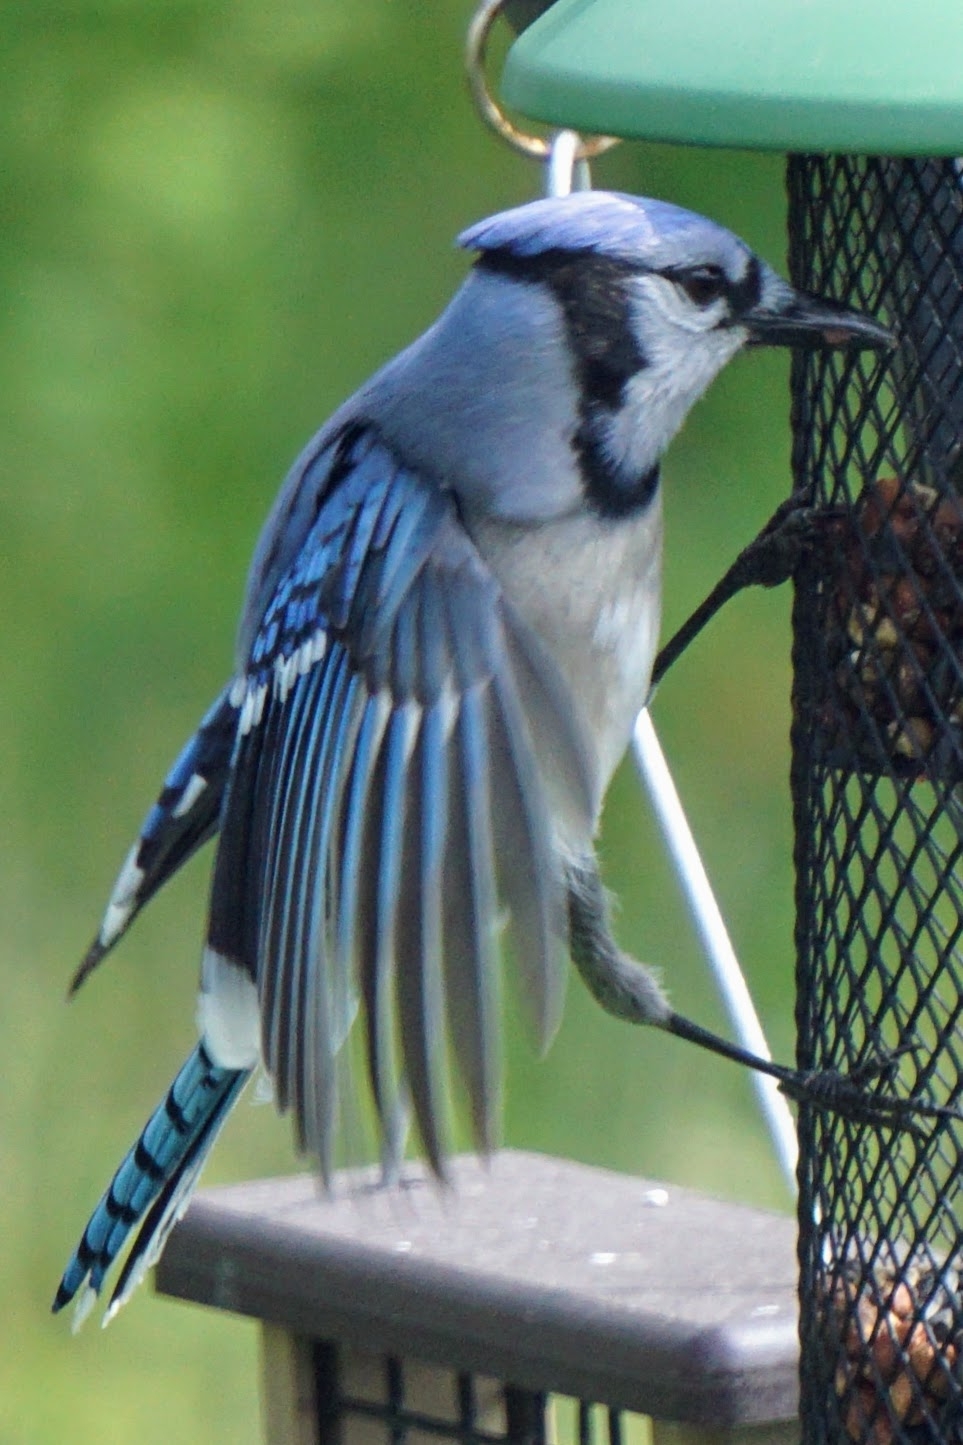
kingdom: Animalia
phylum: Chordata
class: Aves
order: Passeriformes
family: Corvidae
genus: Cyanocitta
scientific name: Cyanocitta cristata
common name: Blue jay
